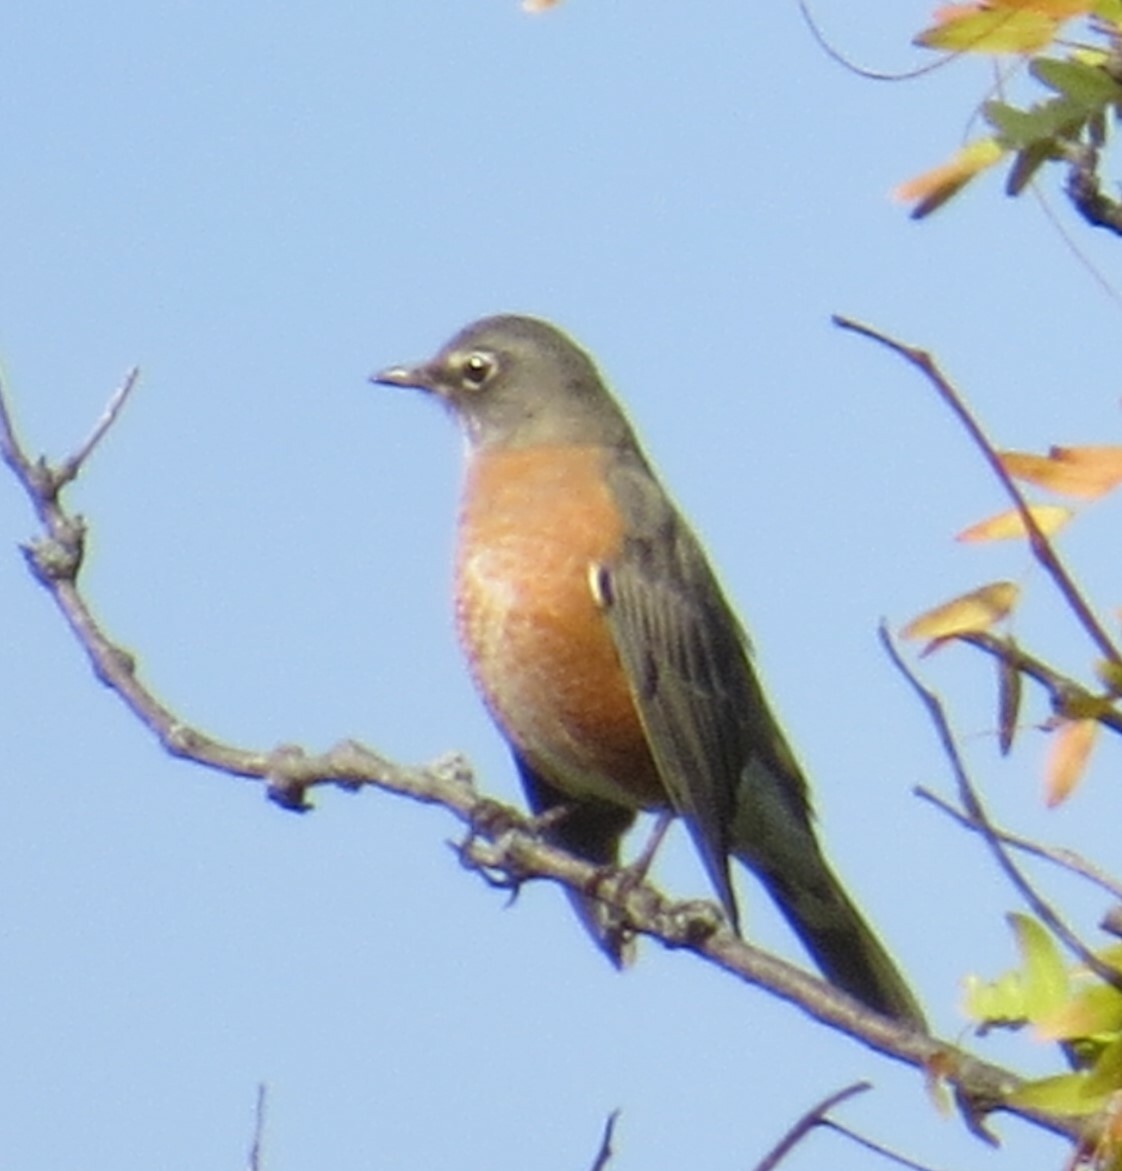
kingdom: Animalia
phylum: Chordata
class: Aves
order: Passeriformes
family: Turdidae
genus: Turdus
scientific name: Turdus migratorius
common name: American robin
